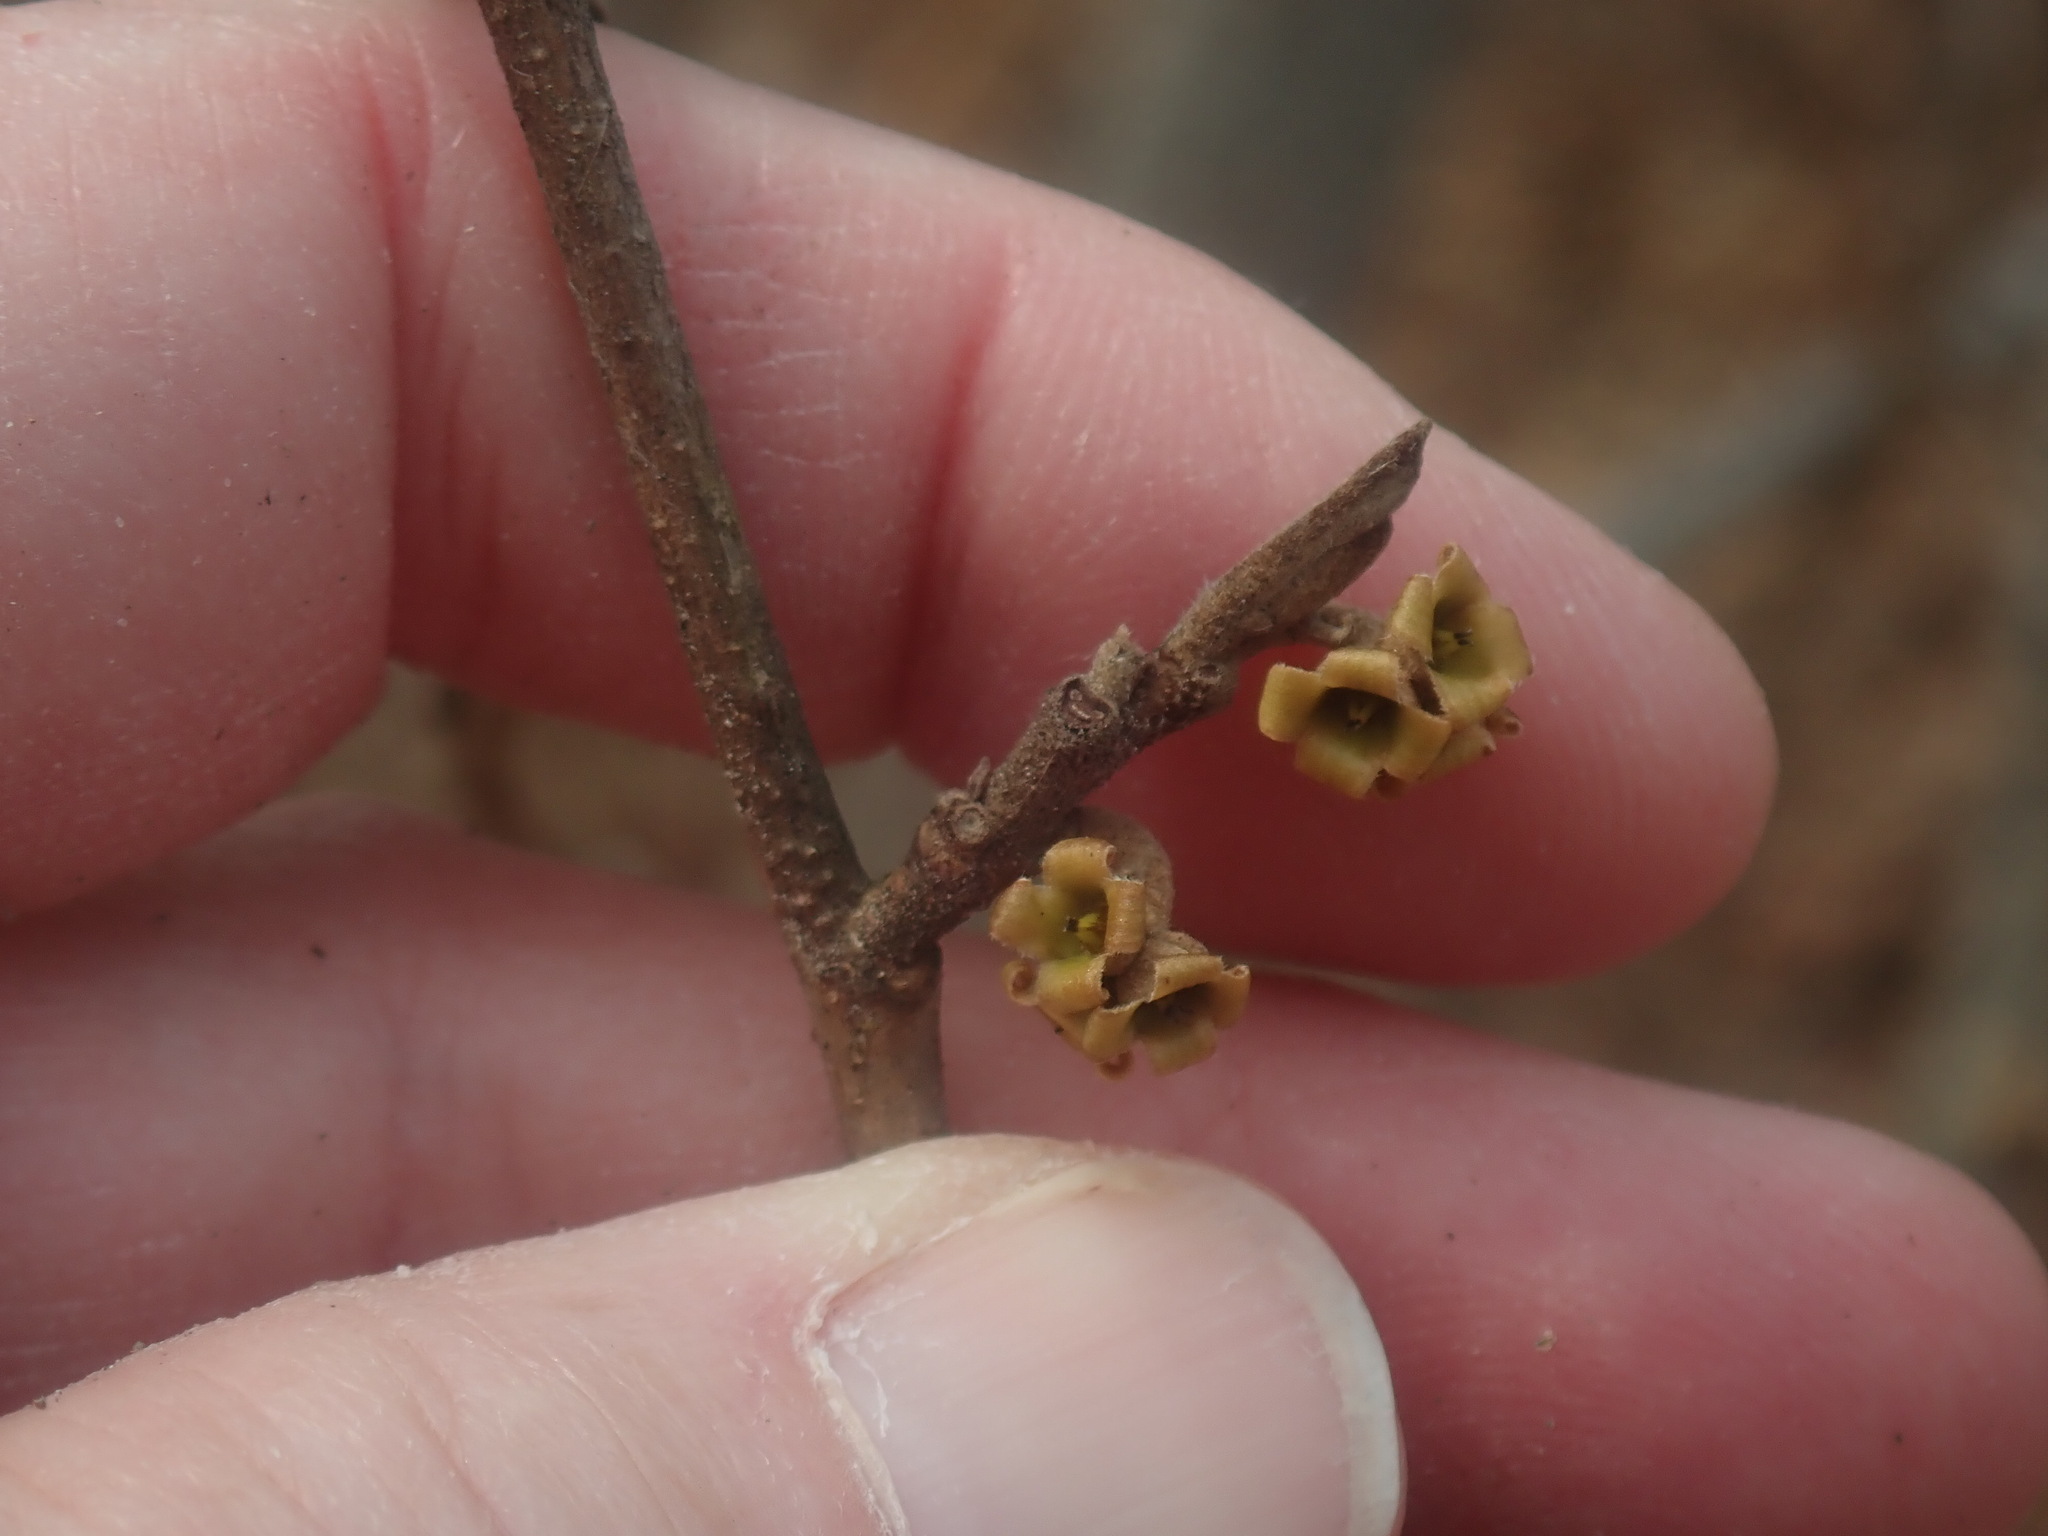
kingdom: Plantae
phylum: Tracheophyta
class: Magnoliopsida
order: Saxifragales
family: Hamamelidaceae
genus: Hamamelis
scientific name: Hamamelis virginiana
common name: Witch-hazel
